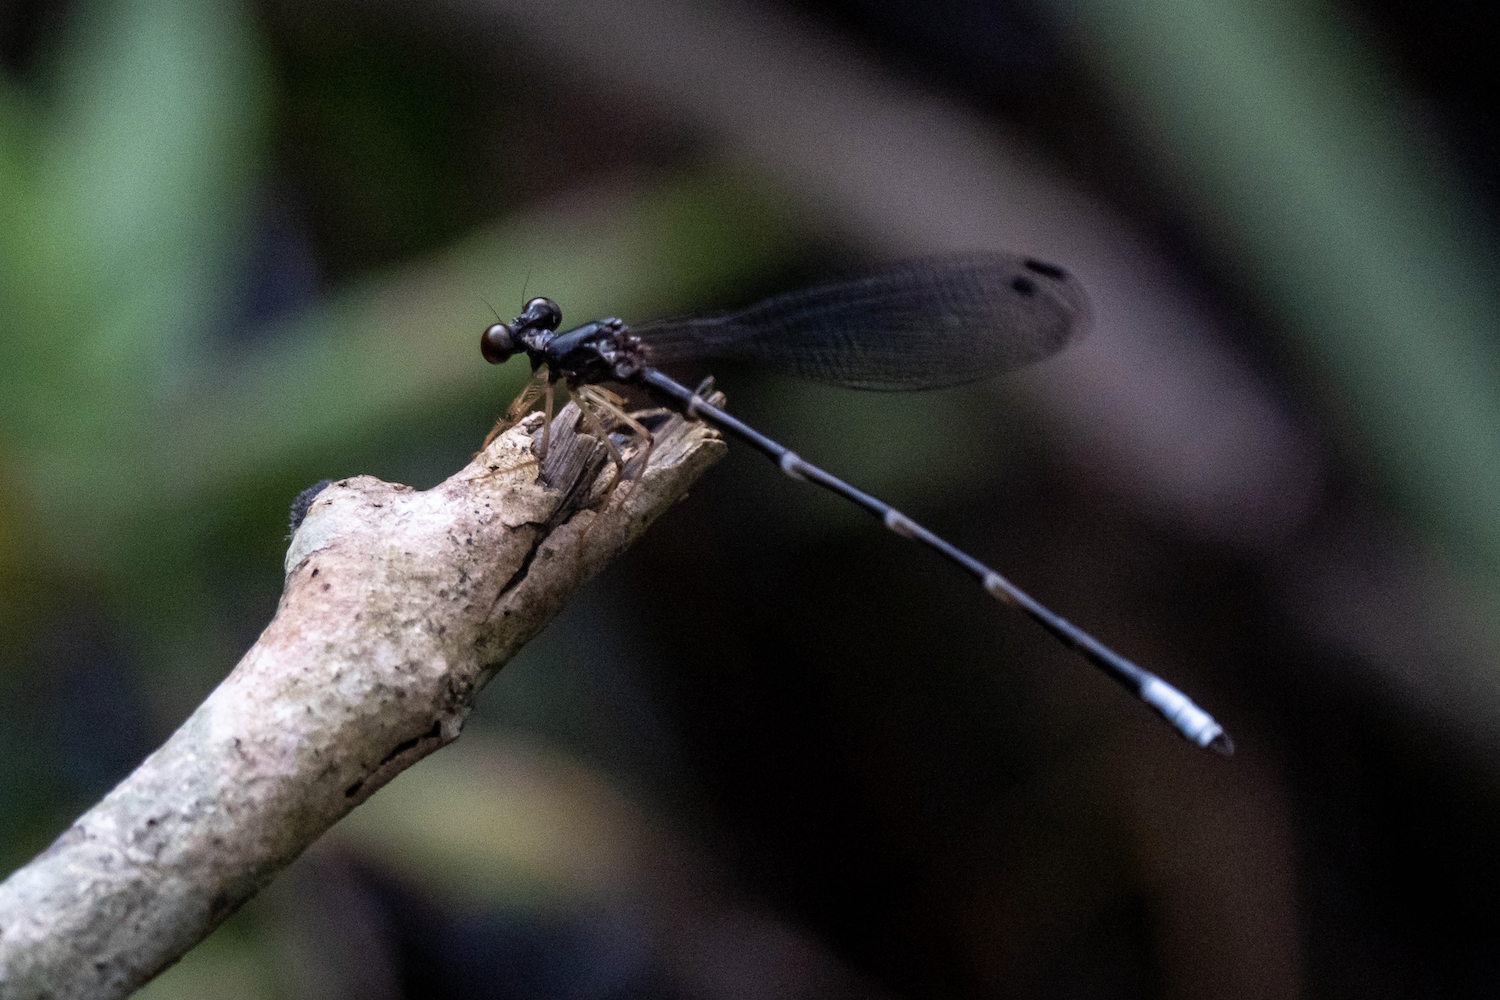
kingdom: Animalia
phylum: Arthropoda
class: Insecta
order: Odonata
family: Thaumatoneuridae
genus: Agriomorpha
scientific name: Agriomorpha fusca
